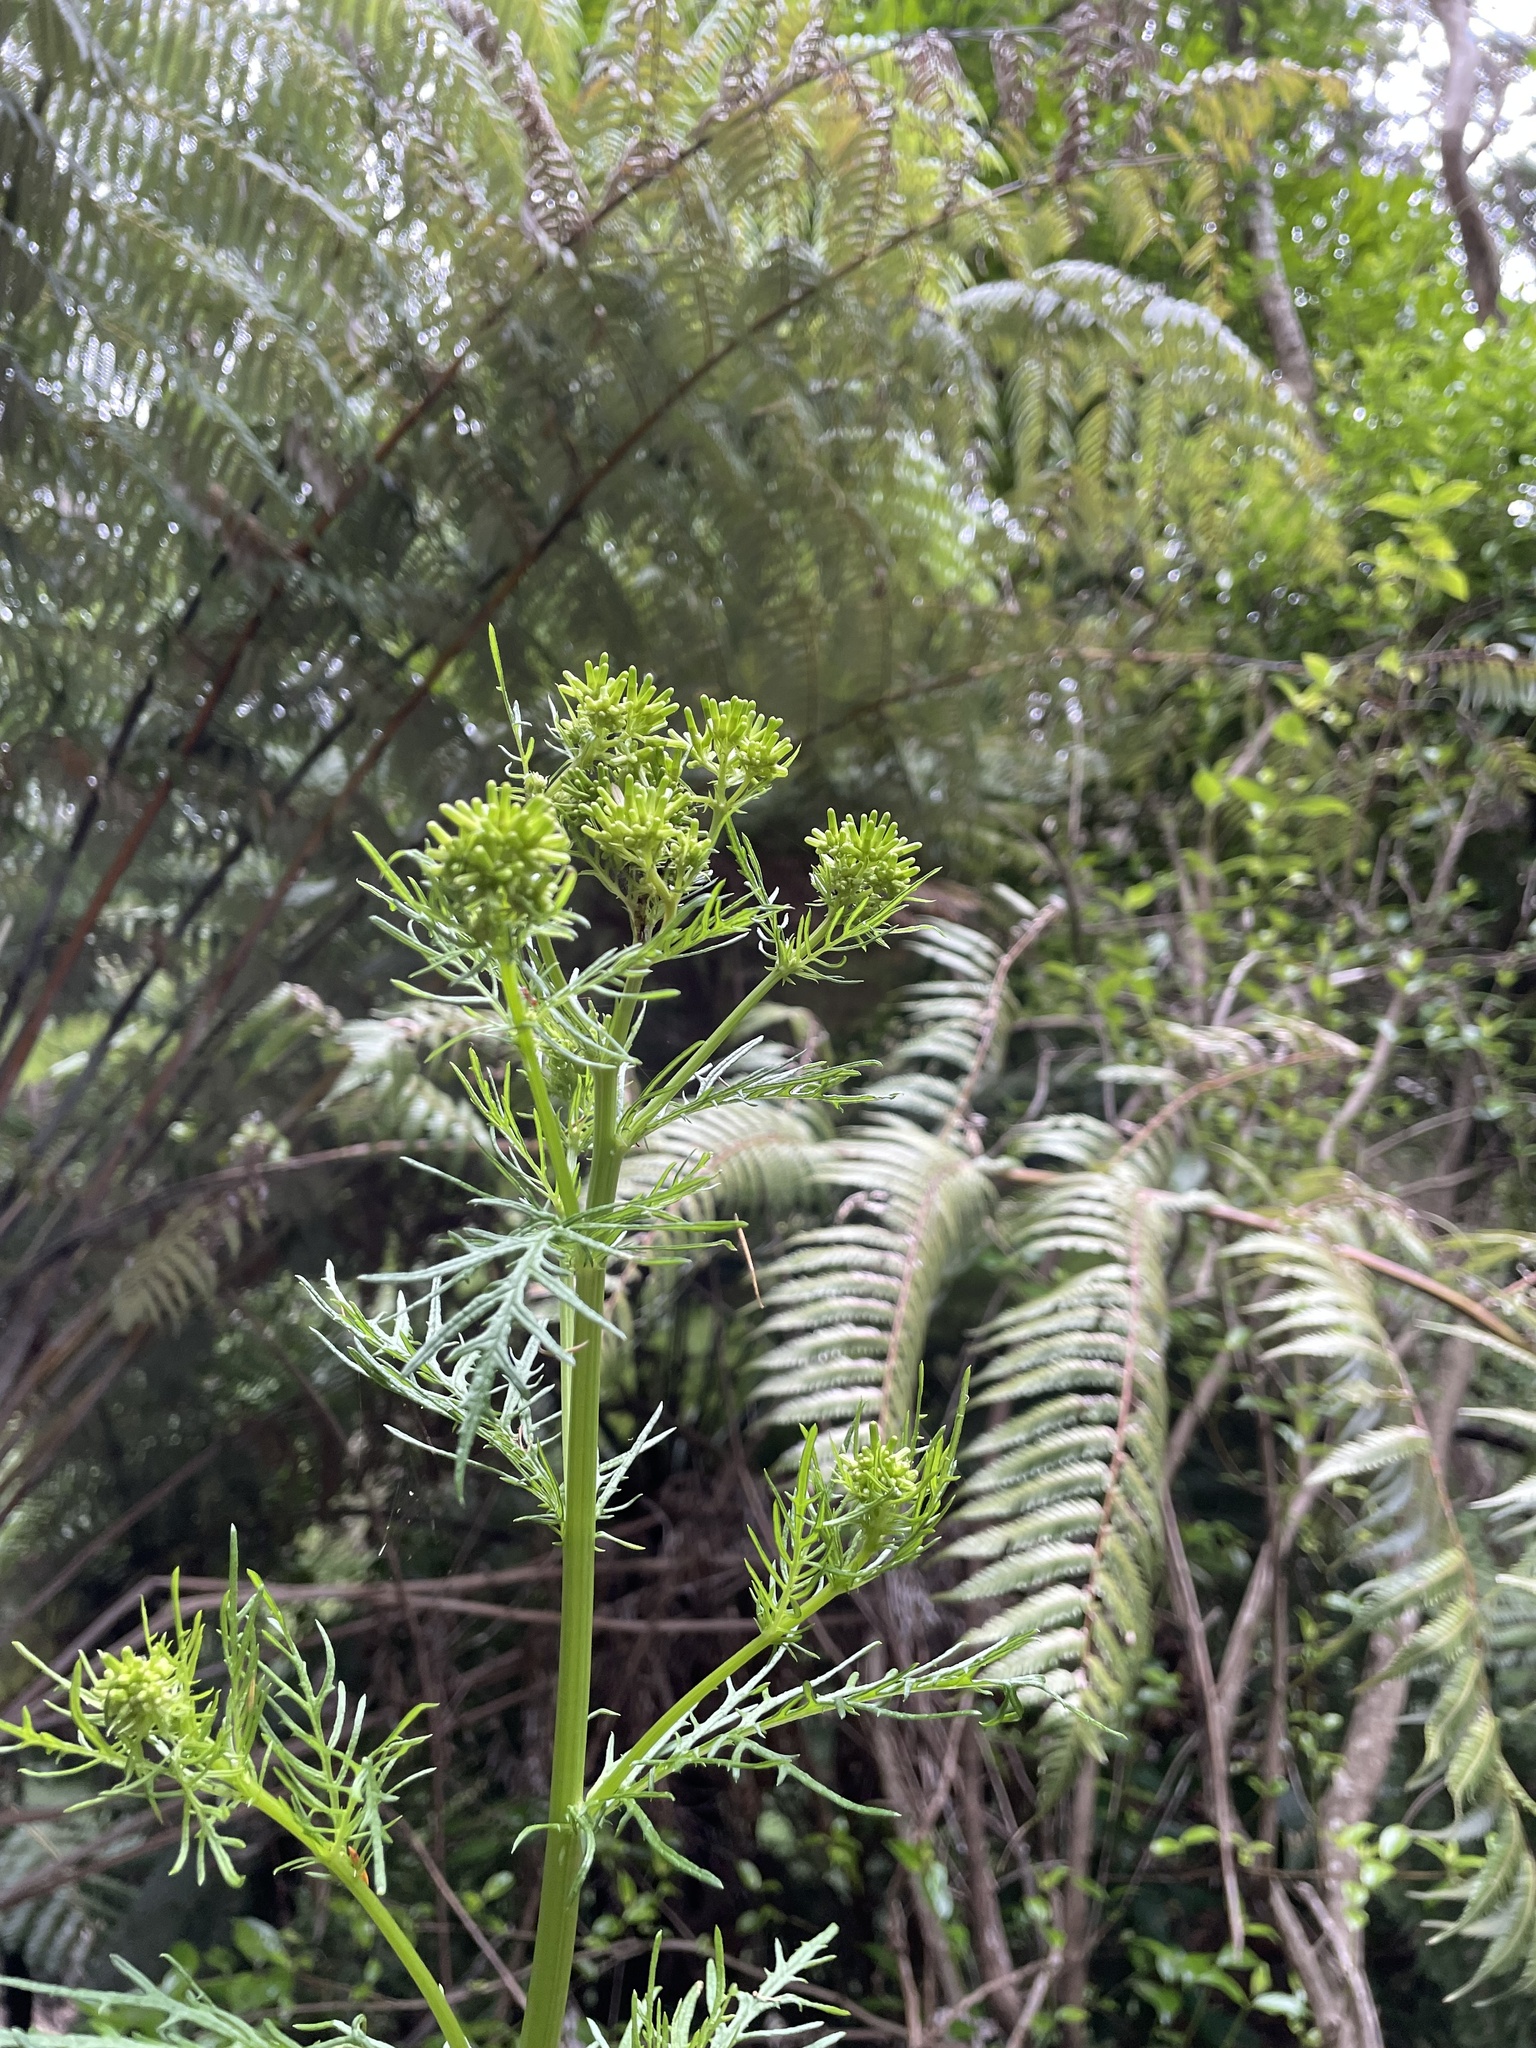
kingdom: Plantae
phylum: Tracheophyta
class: Magnoliopsida
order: Asterales
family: Asteraceae
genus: Senecio
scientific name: Senecio bipinnatisectus
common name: Australian fireweed
